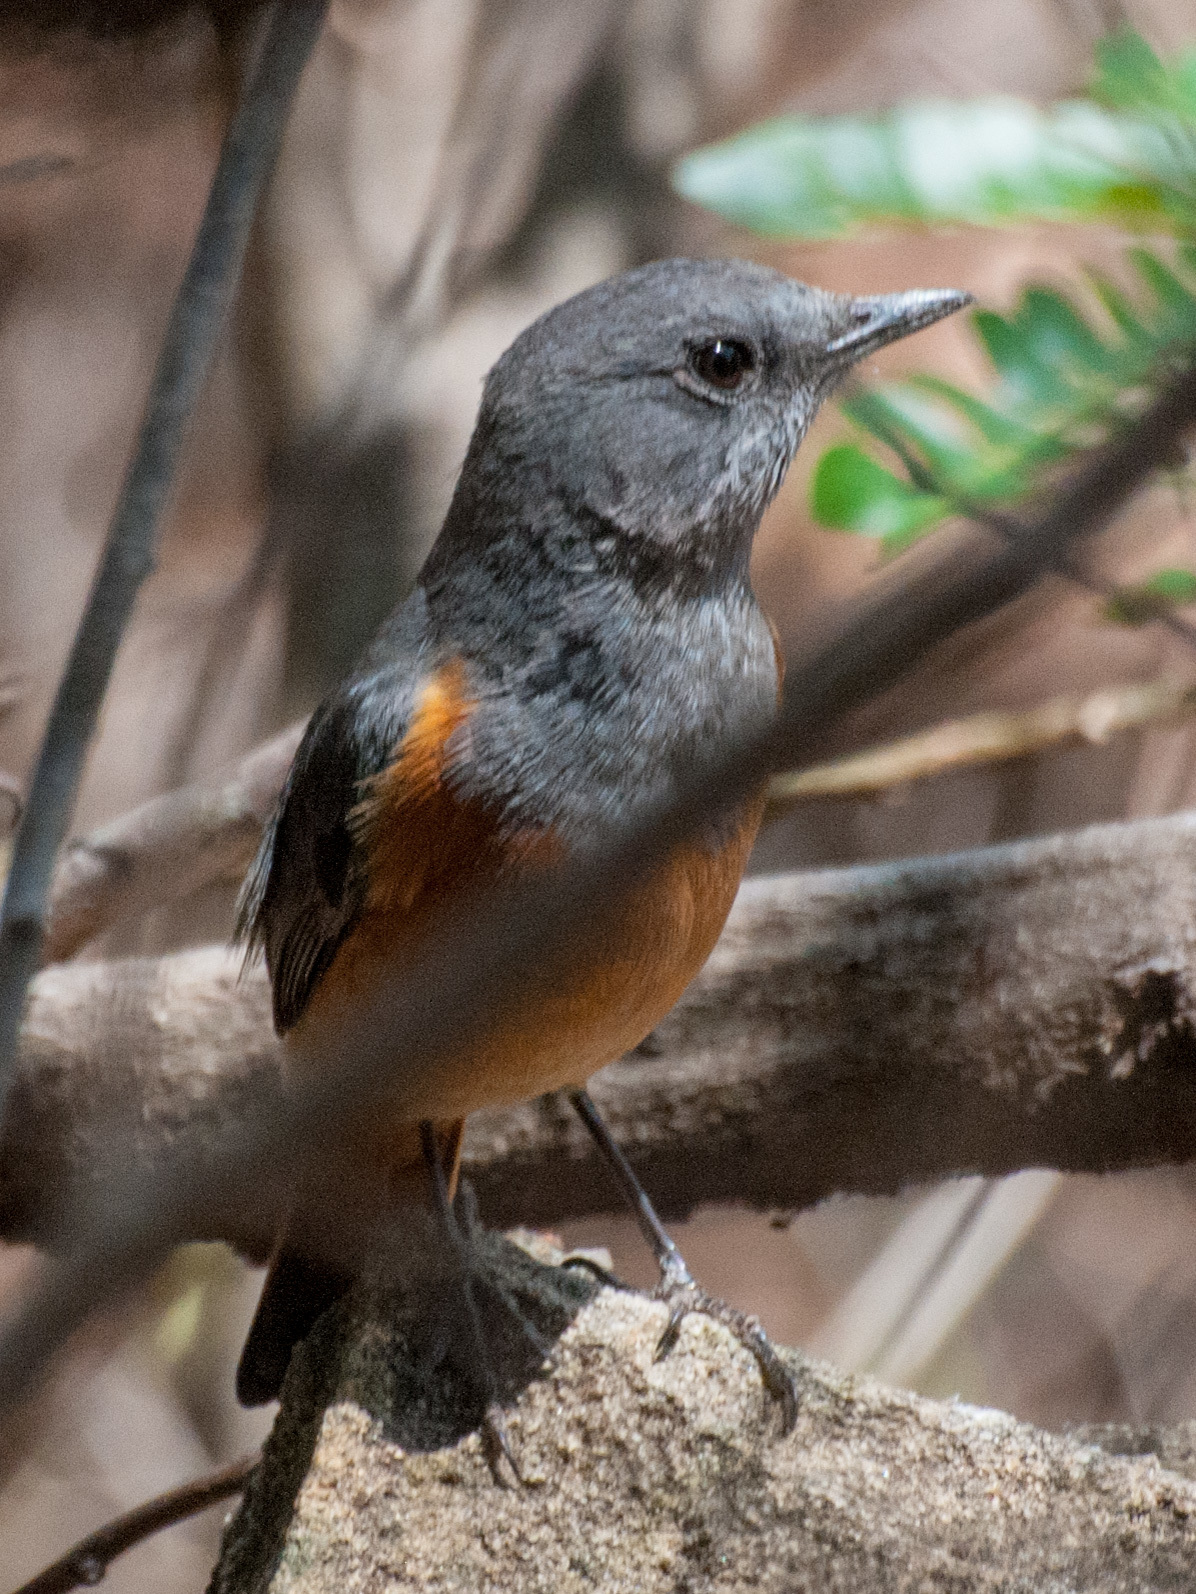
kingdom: Animalia
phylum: Chordata
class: Aves
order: Passeriformes
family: Muscicapidae
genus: Monticola
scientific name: Monticola sharpei
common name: Forest rock-thrush
